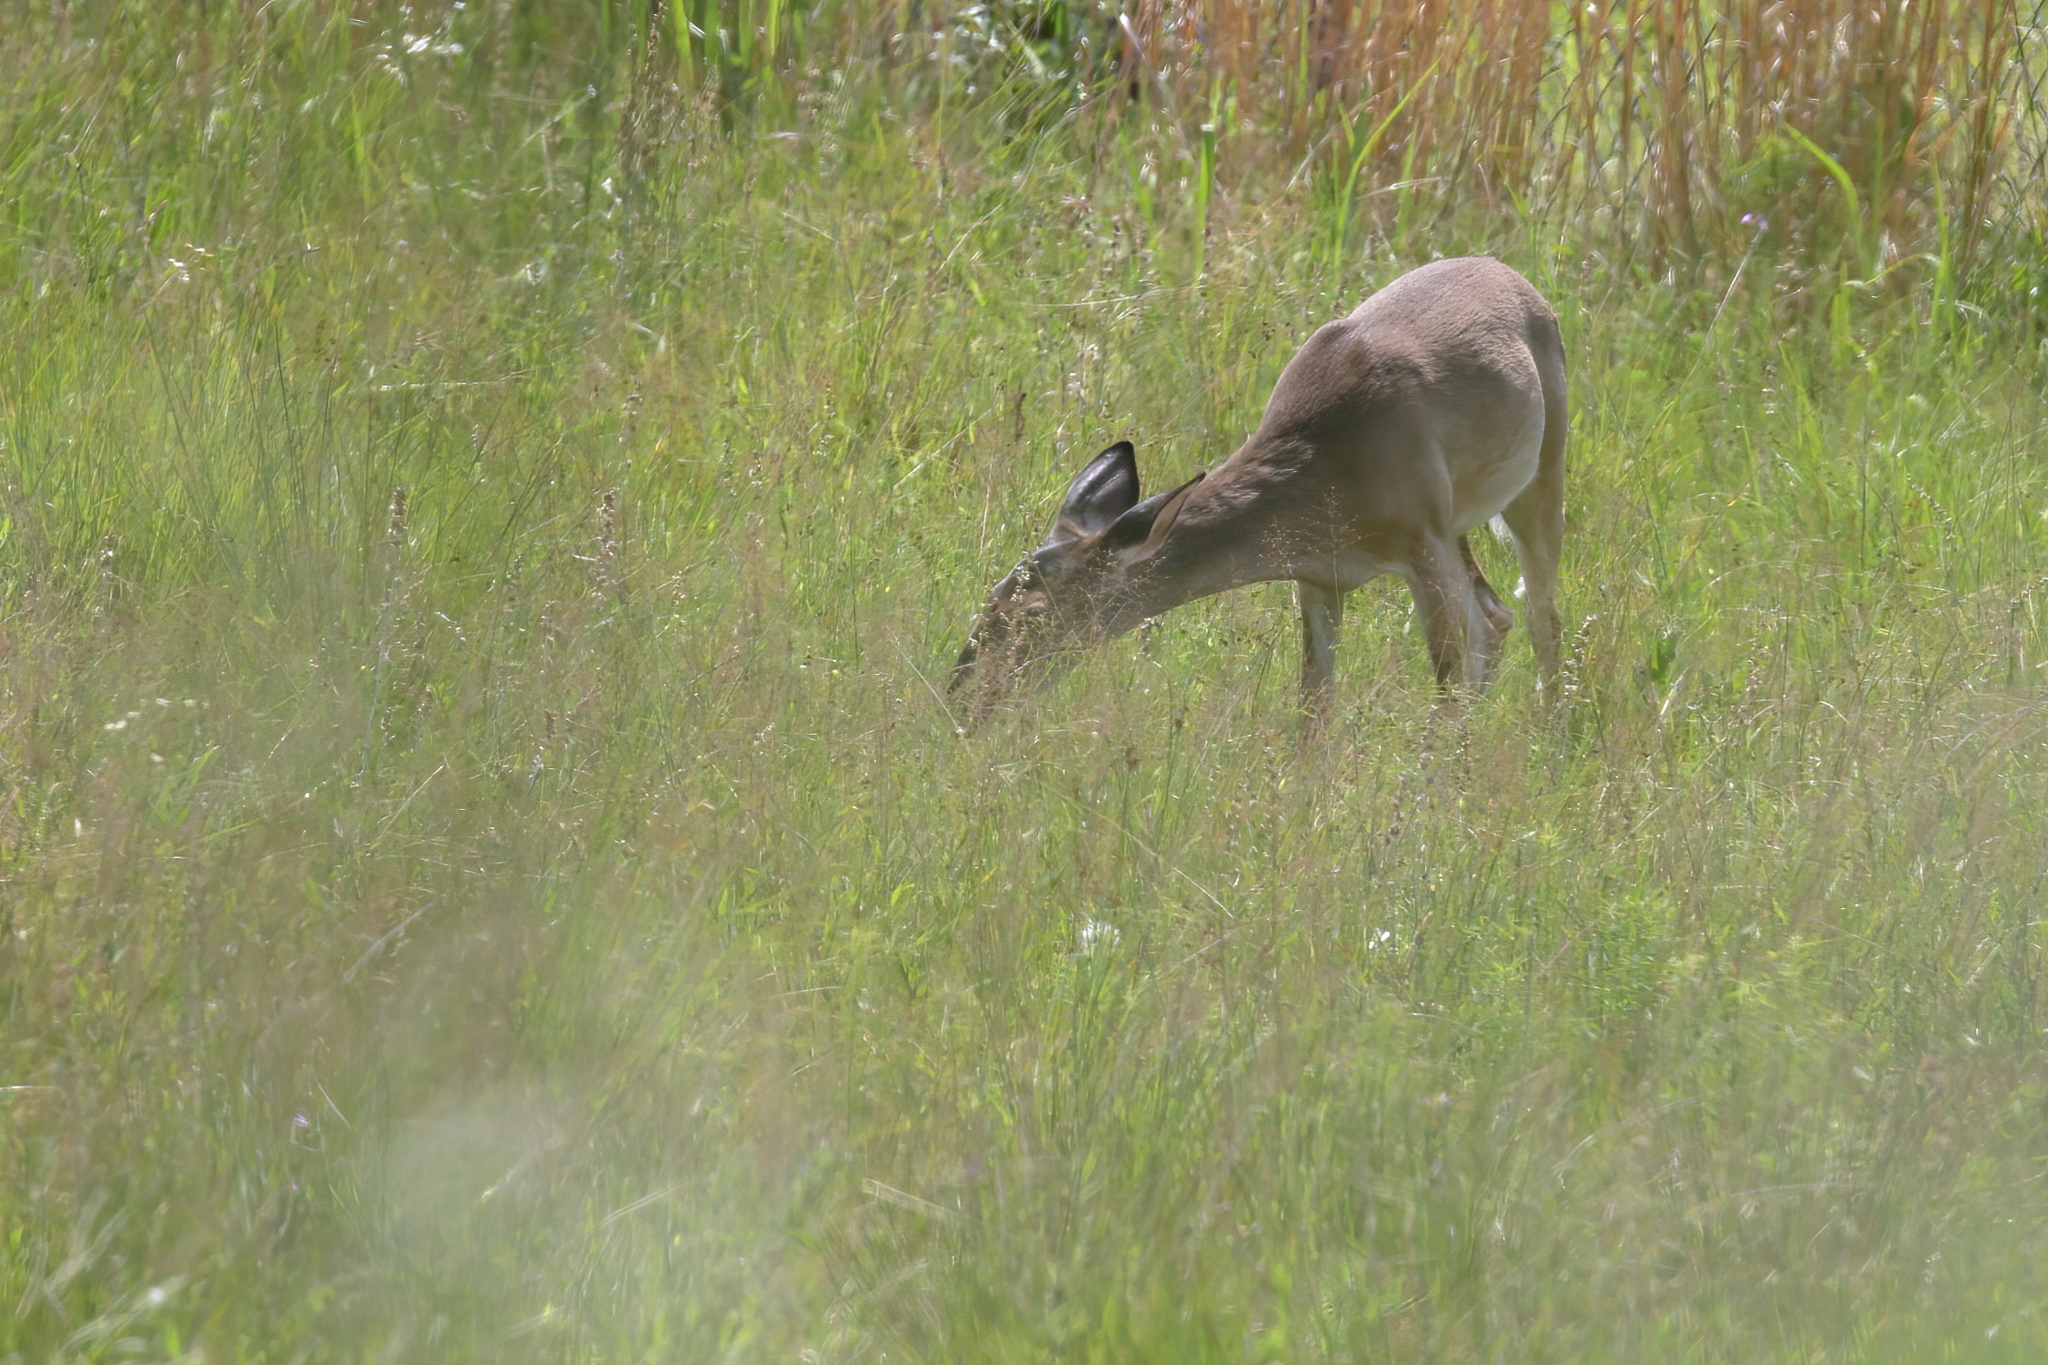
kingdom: Animalia
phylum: Chordata
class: Mammalia
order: Artiodactyla
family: Cervidae
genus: Odocoileus
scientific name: Odocoileus virginianus
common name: White-tailed deer
